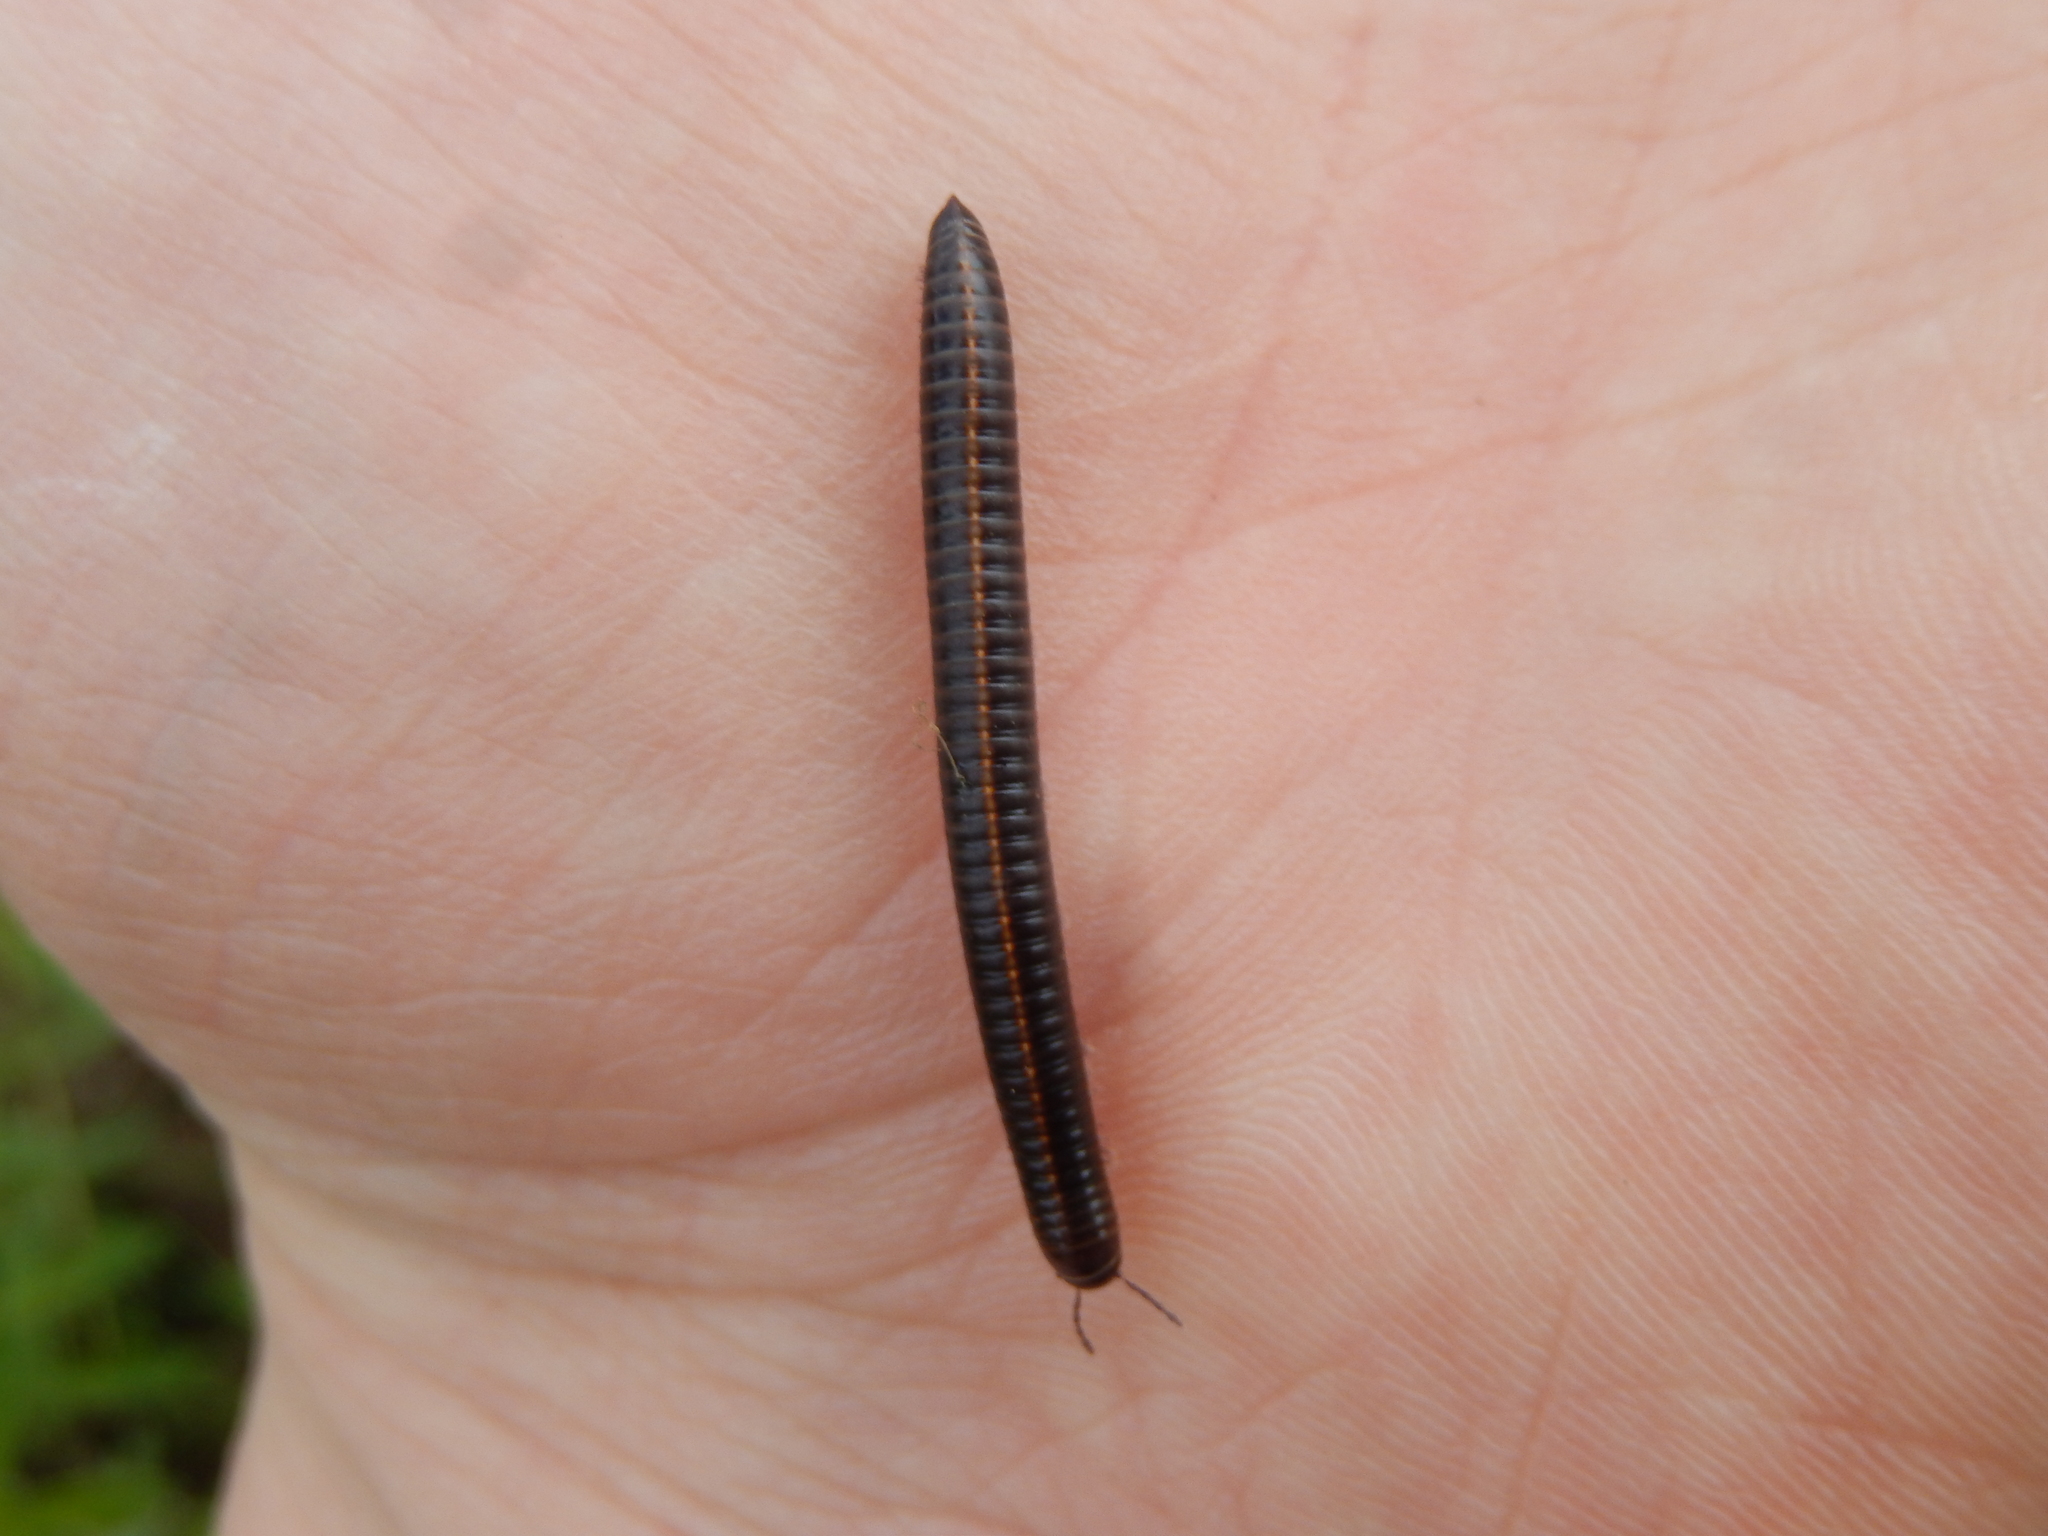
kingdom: Animalia
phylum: Arthropoda
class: Diplopoda
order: Julida
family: Julidae
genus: Megaphyllum
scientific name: Megaphyllum unilineatum
